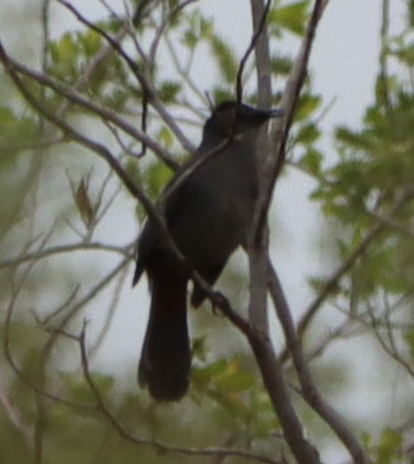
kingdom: Animalia
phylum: Chordata
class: Aves
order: Passeriformes
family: Mimidae
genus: Dumetella
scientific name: Dumetella carolinensis
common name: Gray catbird
